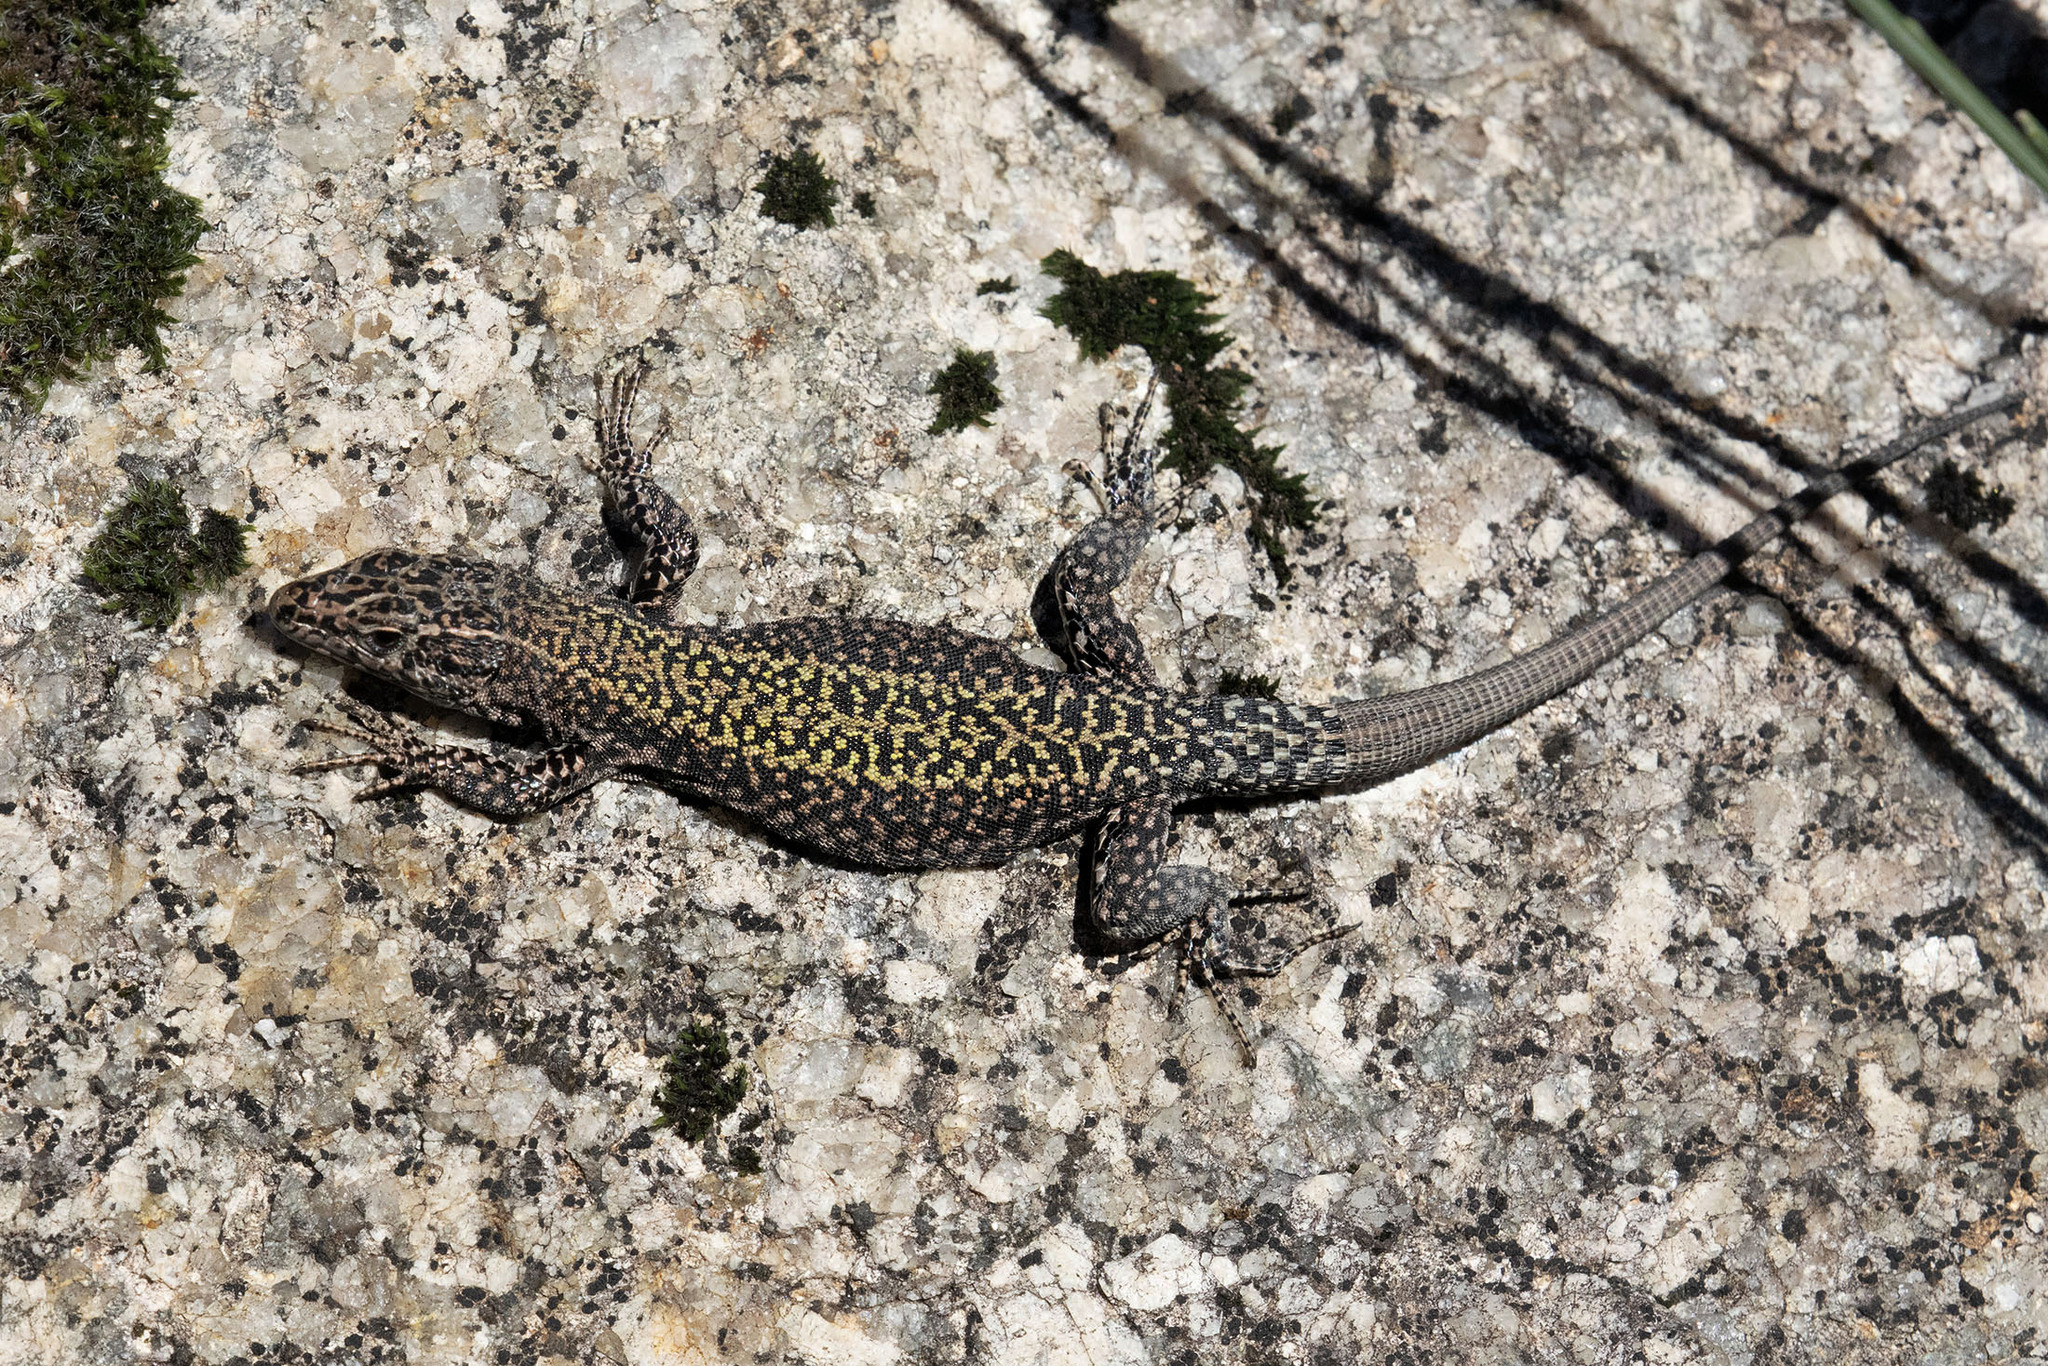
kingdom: Animalia
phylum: Chordata
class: Squamata
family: Lacertidae
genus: Podarcis
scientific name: Podarcis bocagei
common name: Bocage's wall lizard
